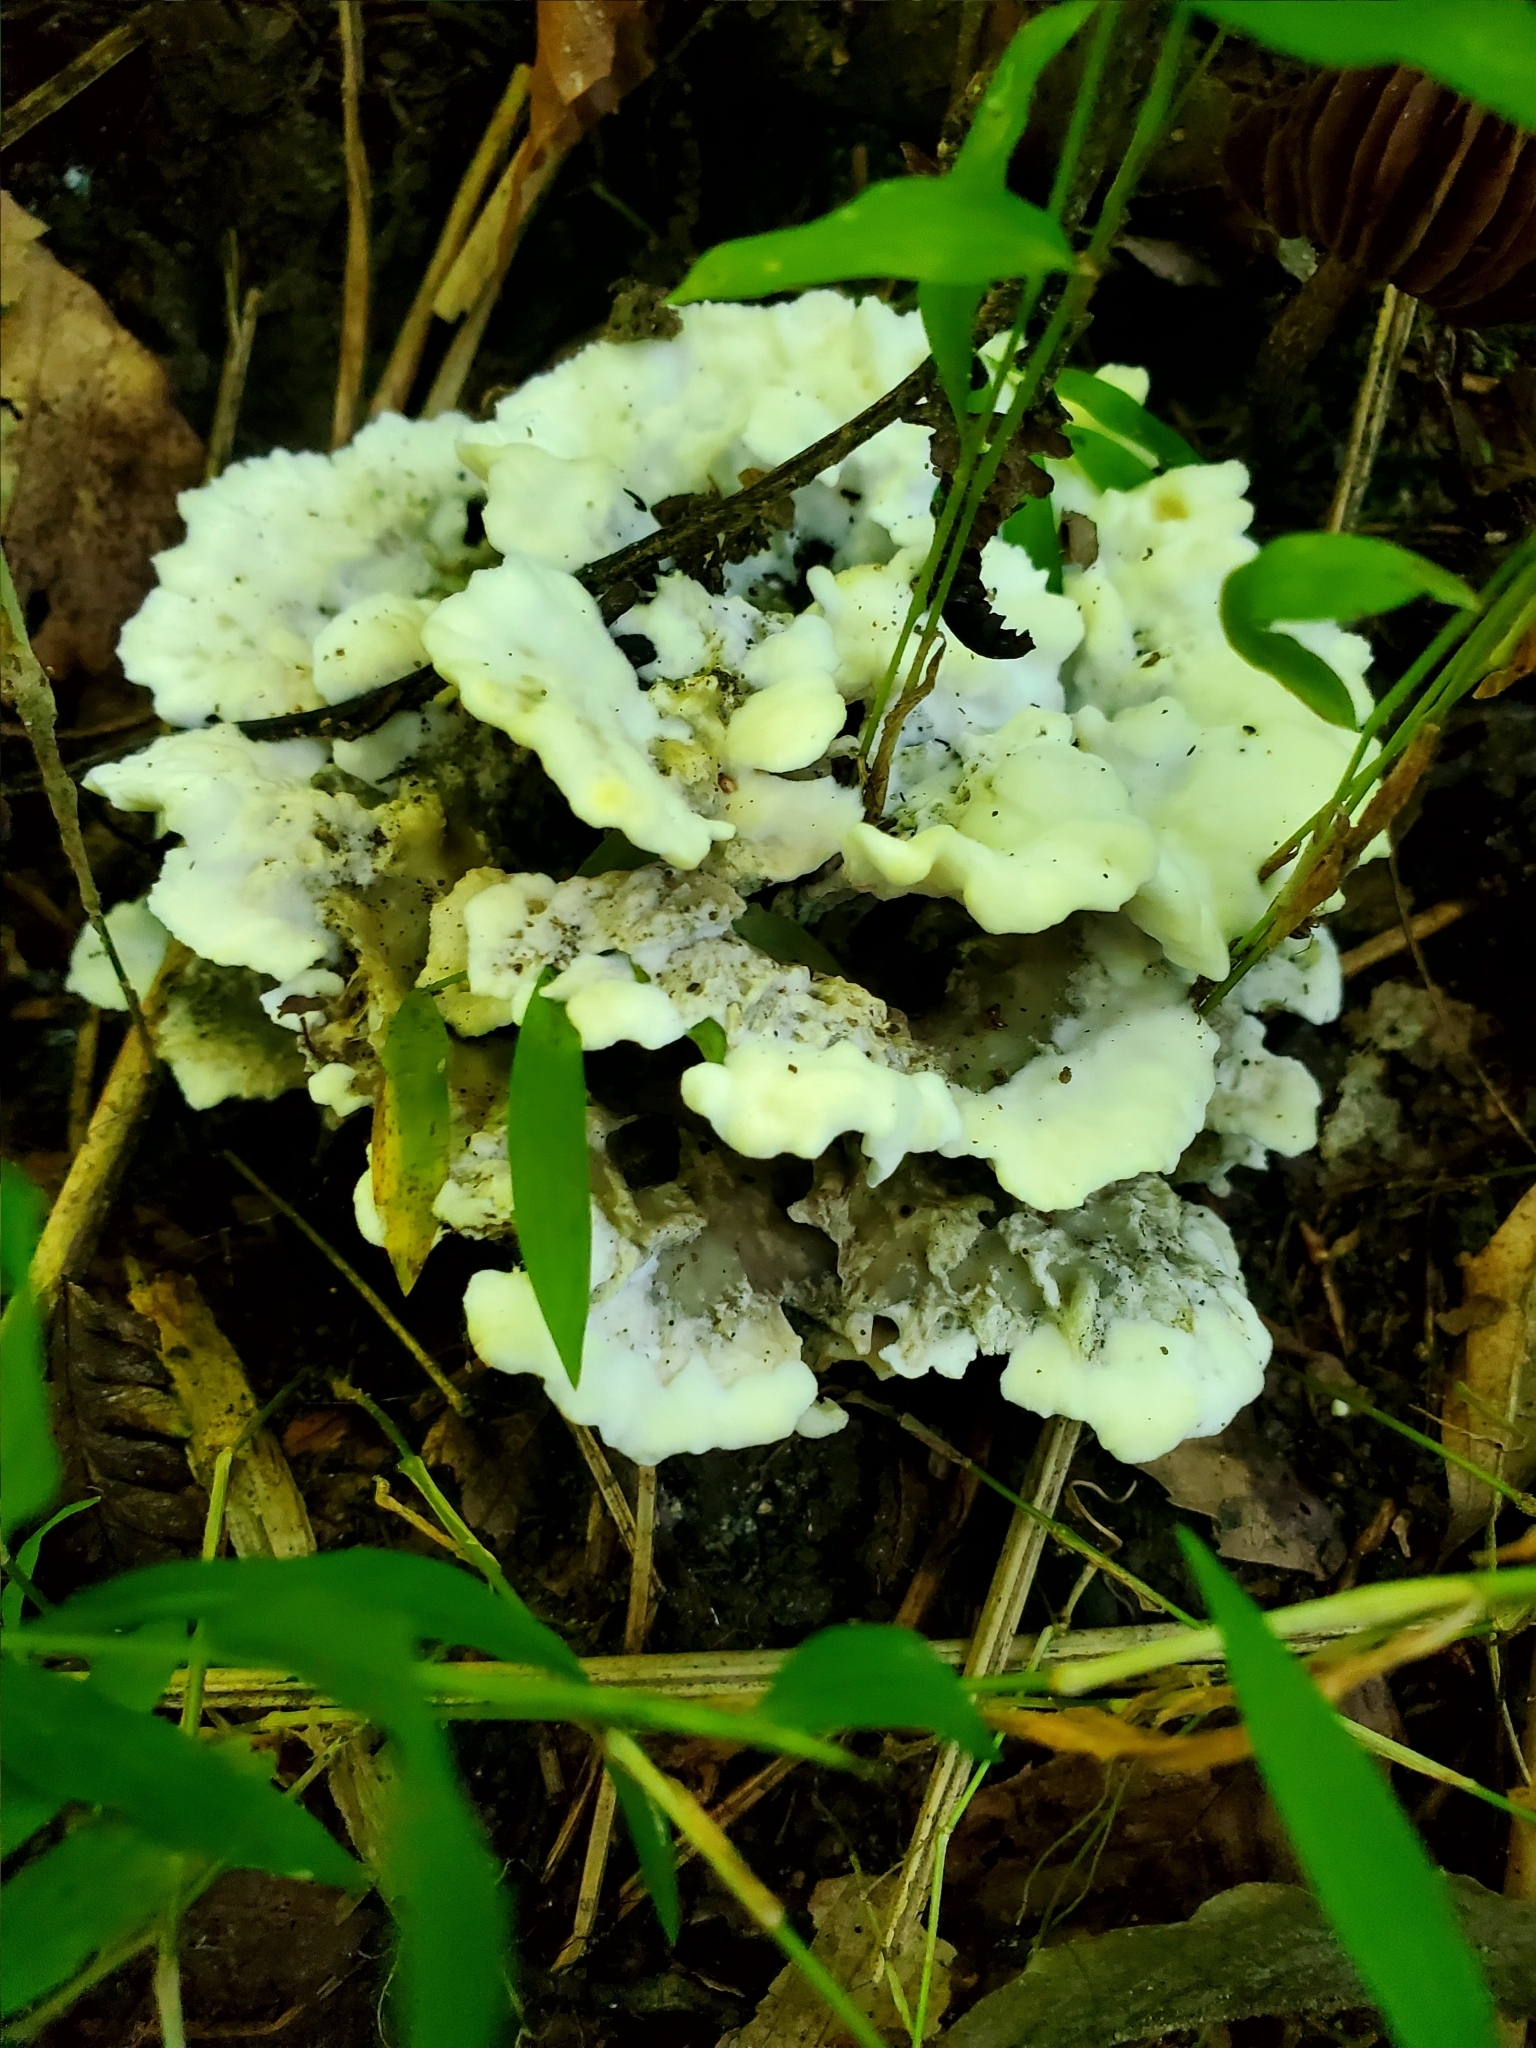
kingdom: Fungi
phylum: Basidiomycota
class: Agaricomycetes
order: Thelephorales
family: Thelephoraceae
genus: Thelephora
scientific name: Thelephora vialis
